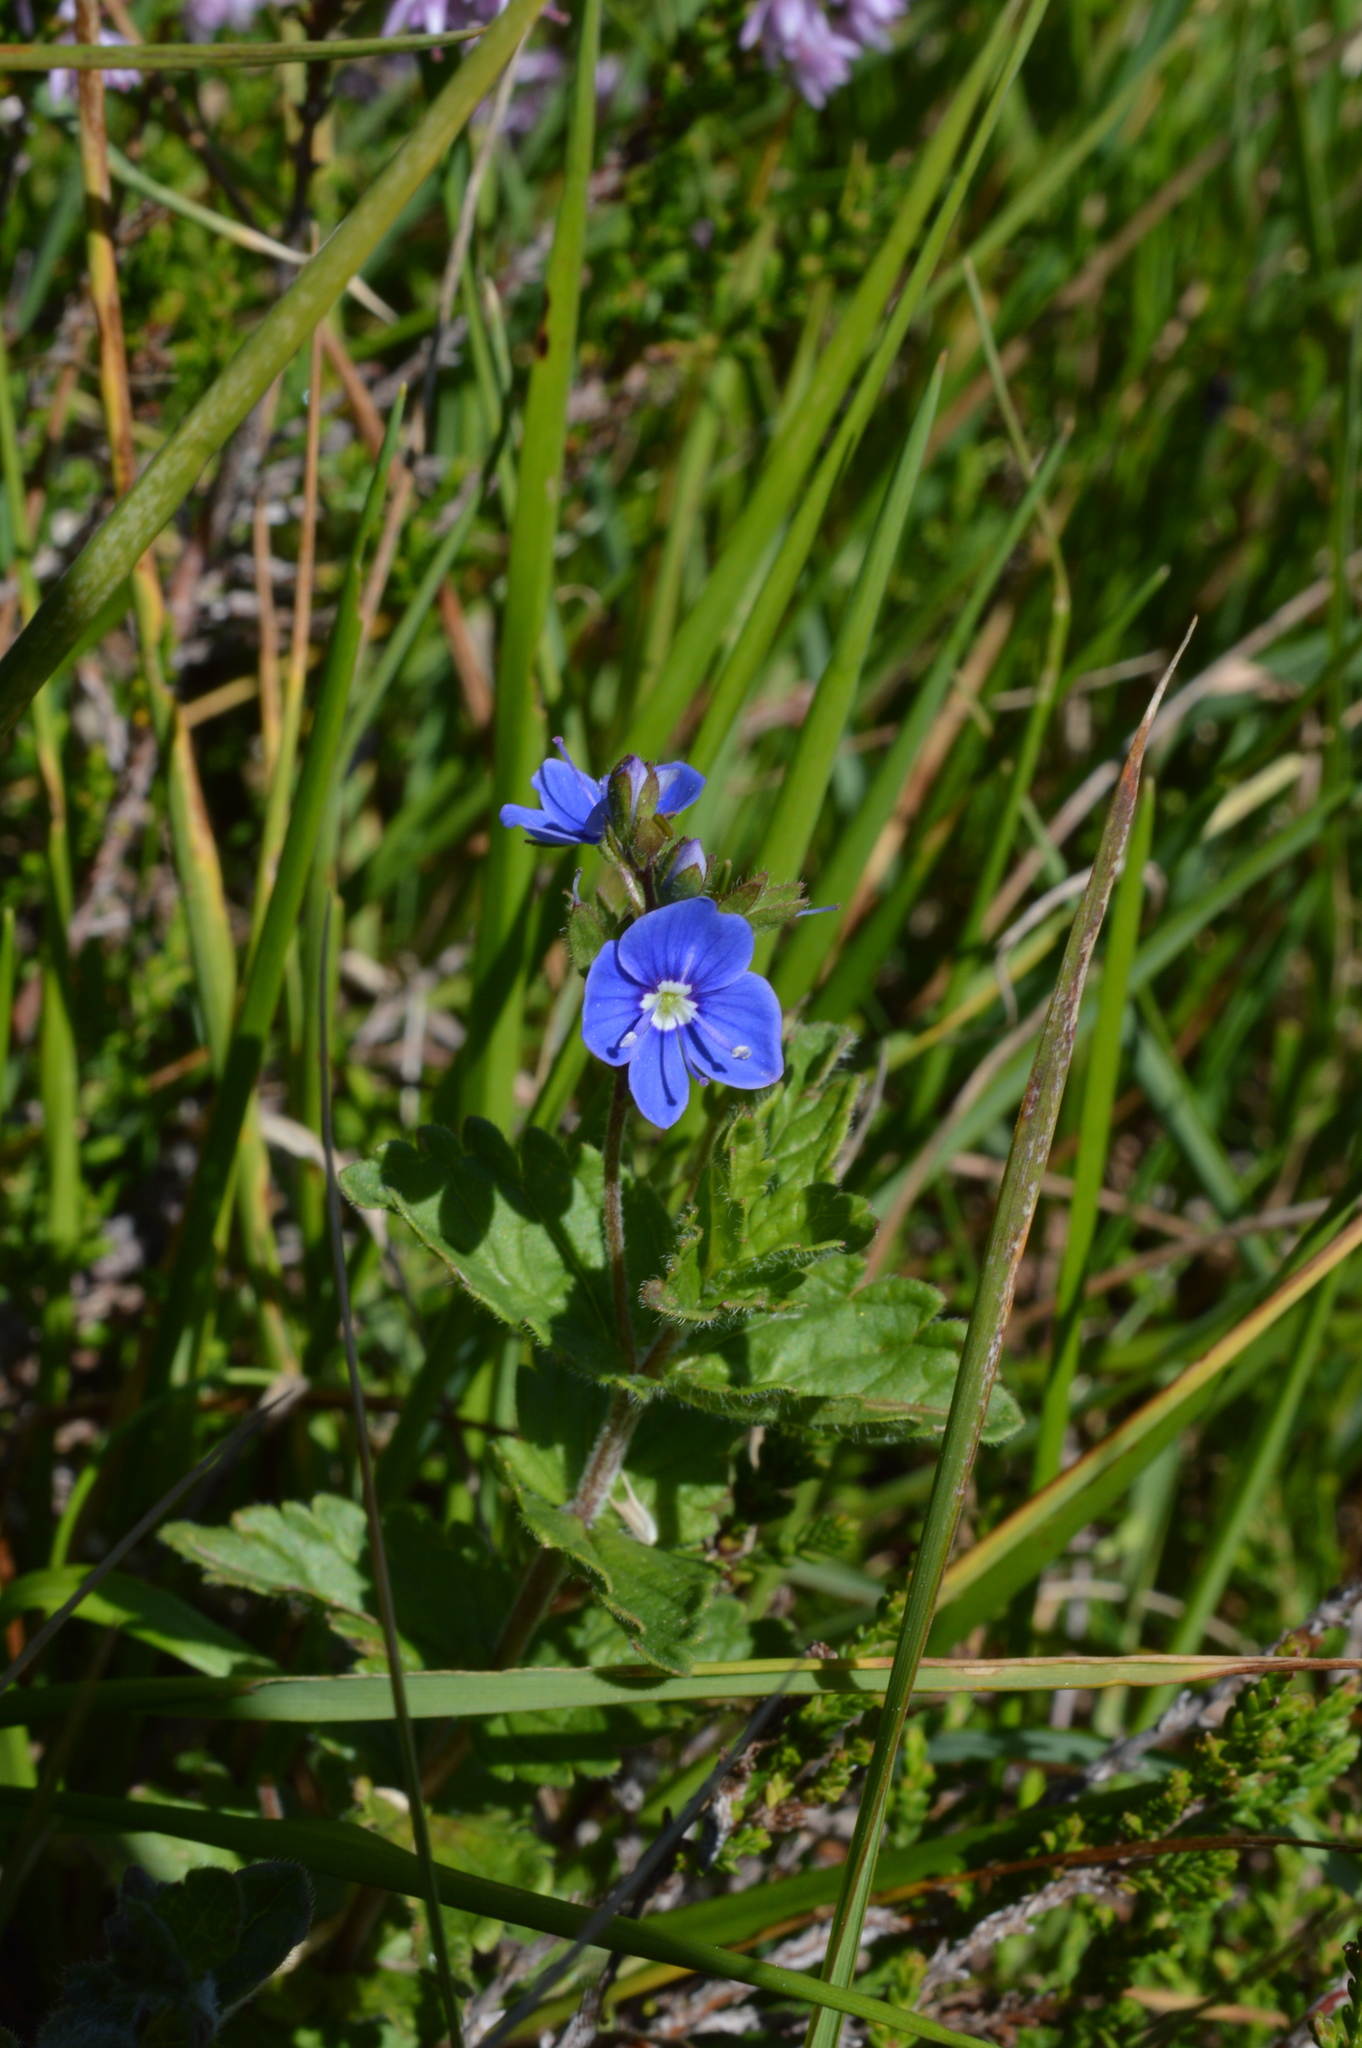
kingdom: Plantae
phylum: Tracheophyta
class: Magnoliopsida
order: Lamiales
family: Plantaginaceae
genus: Veronica
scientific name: Veronica chamaedrys
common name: Germander speedwell
